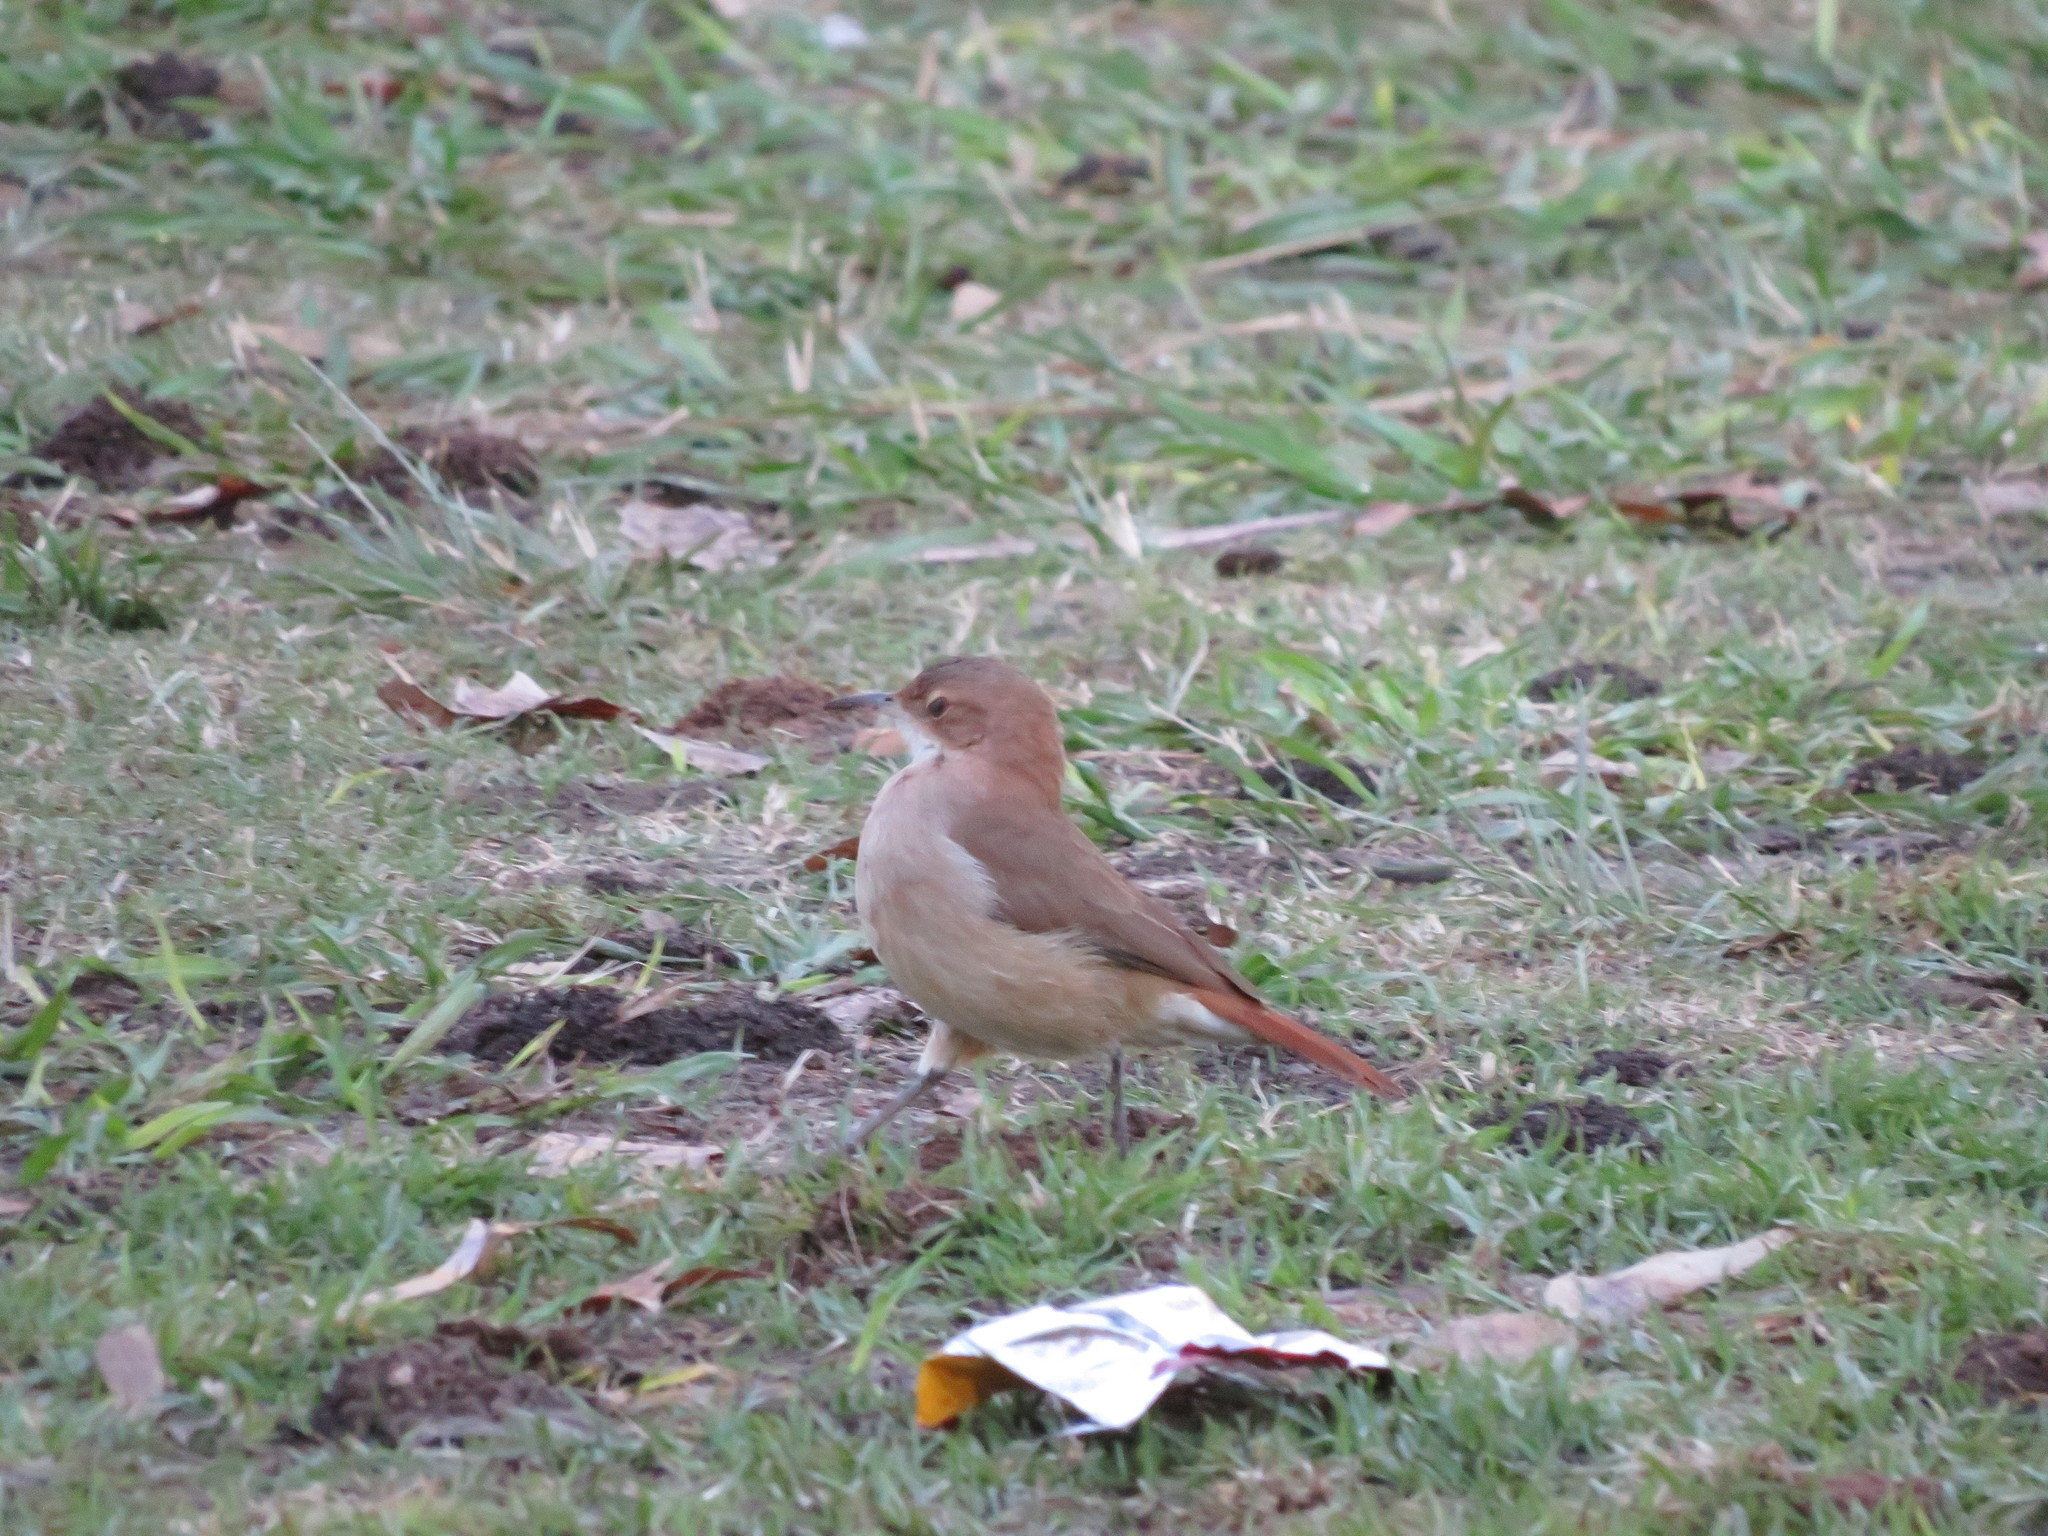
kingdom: Animalia
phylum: Chordata
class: Aves
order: Passeriformes
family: Furnariidae
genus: Furnarius
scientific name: Furnarius rufus
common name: Rufous hornero
